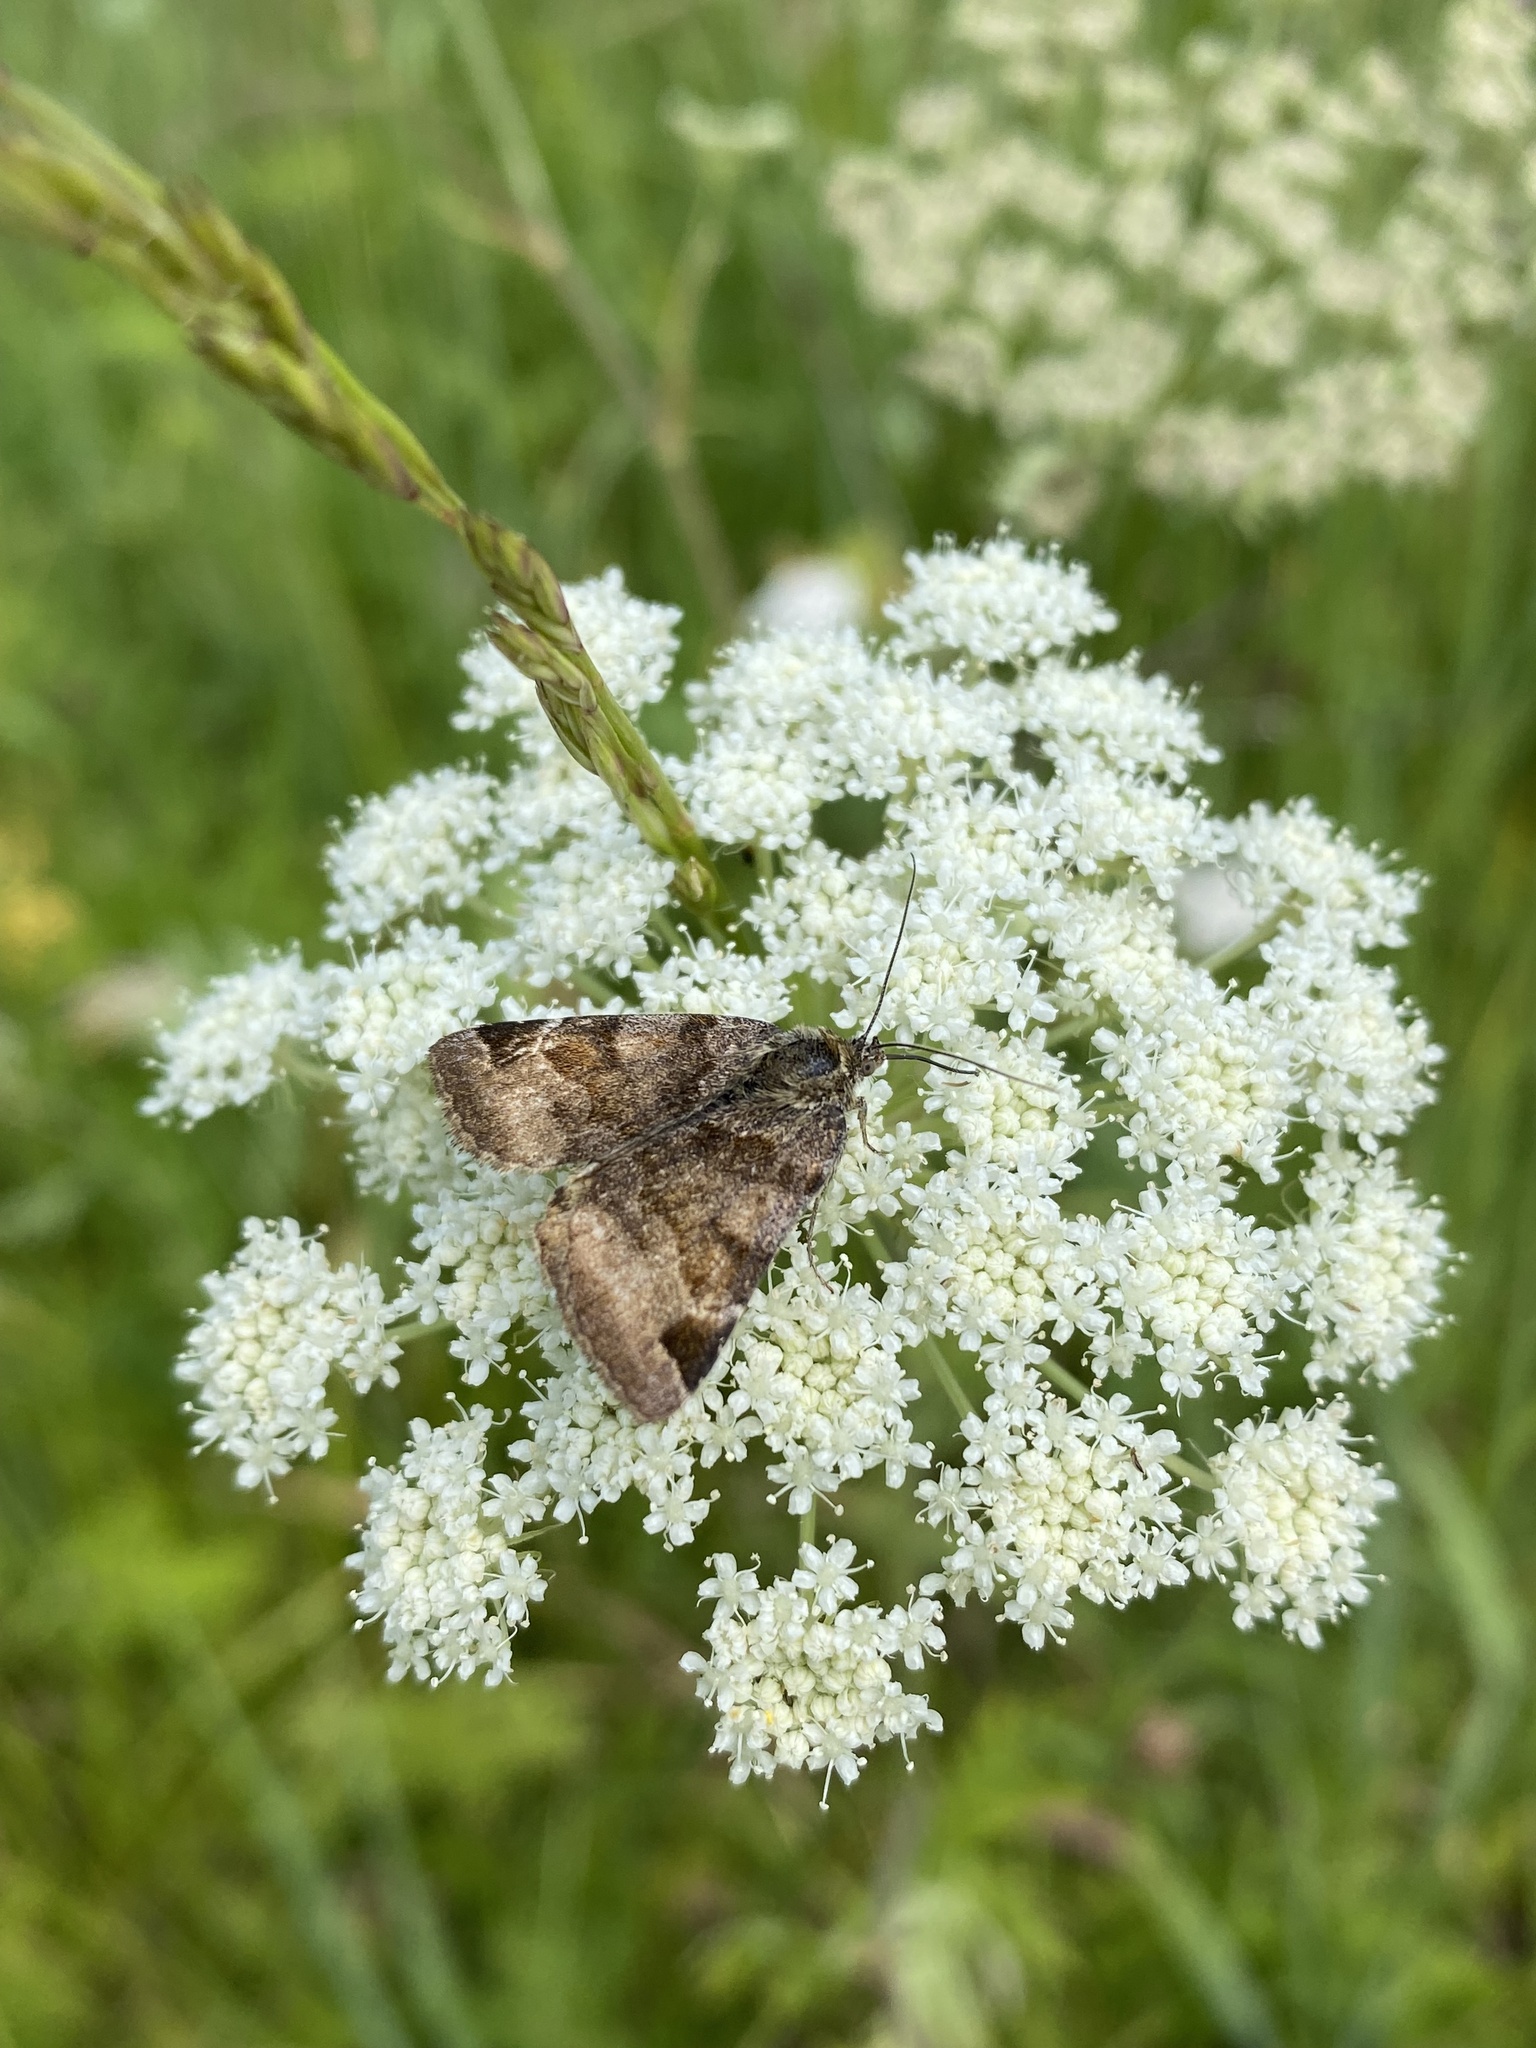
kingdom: Animalia
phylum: Arthropoda
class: Insecta
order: Lepidoptera
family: Erebidae
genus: Euclidia
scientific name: Euclidia glyphica
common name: Burnet companion
